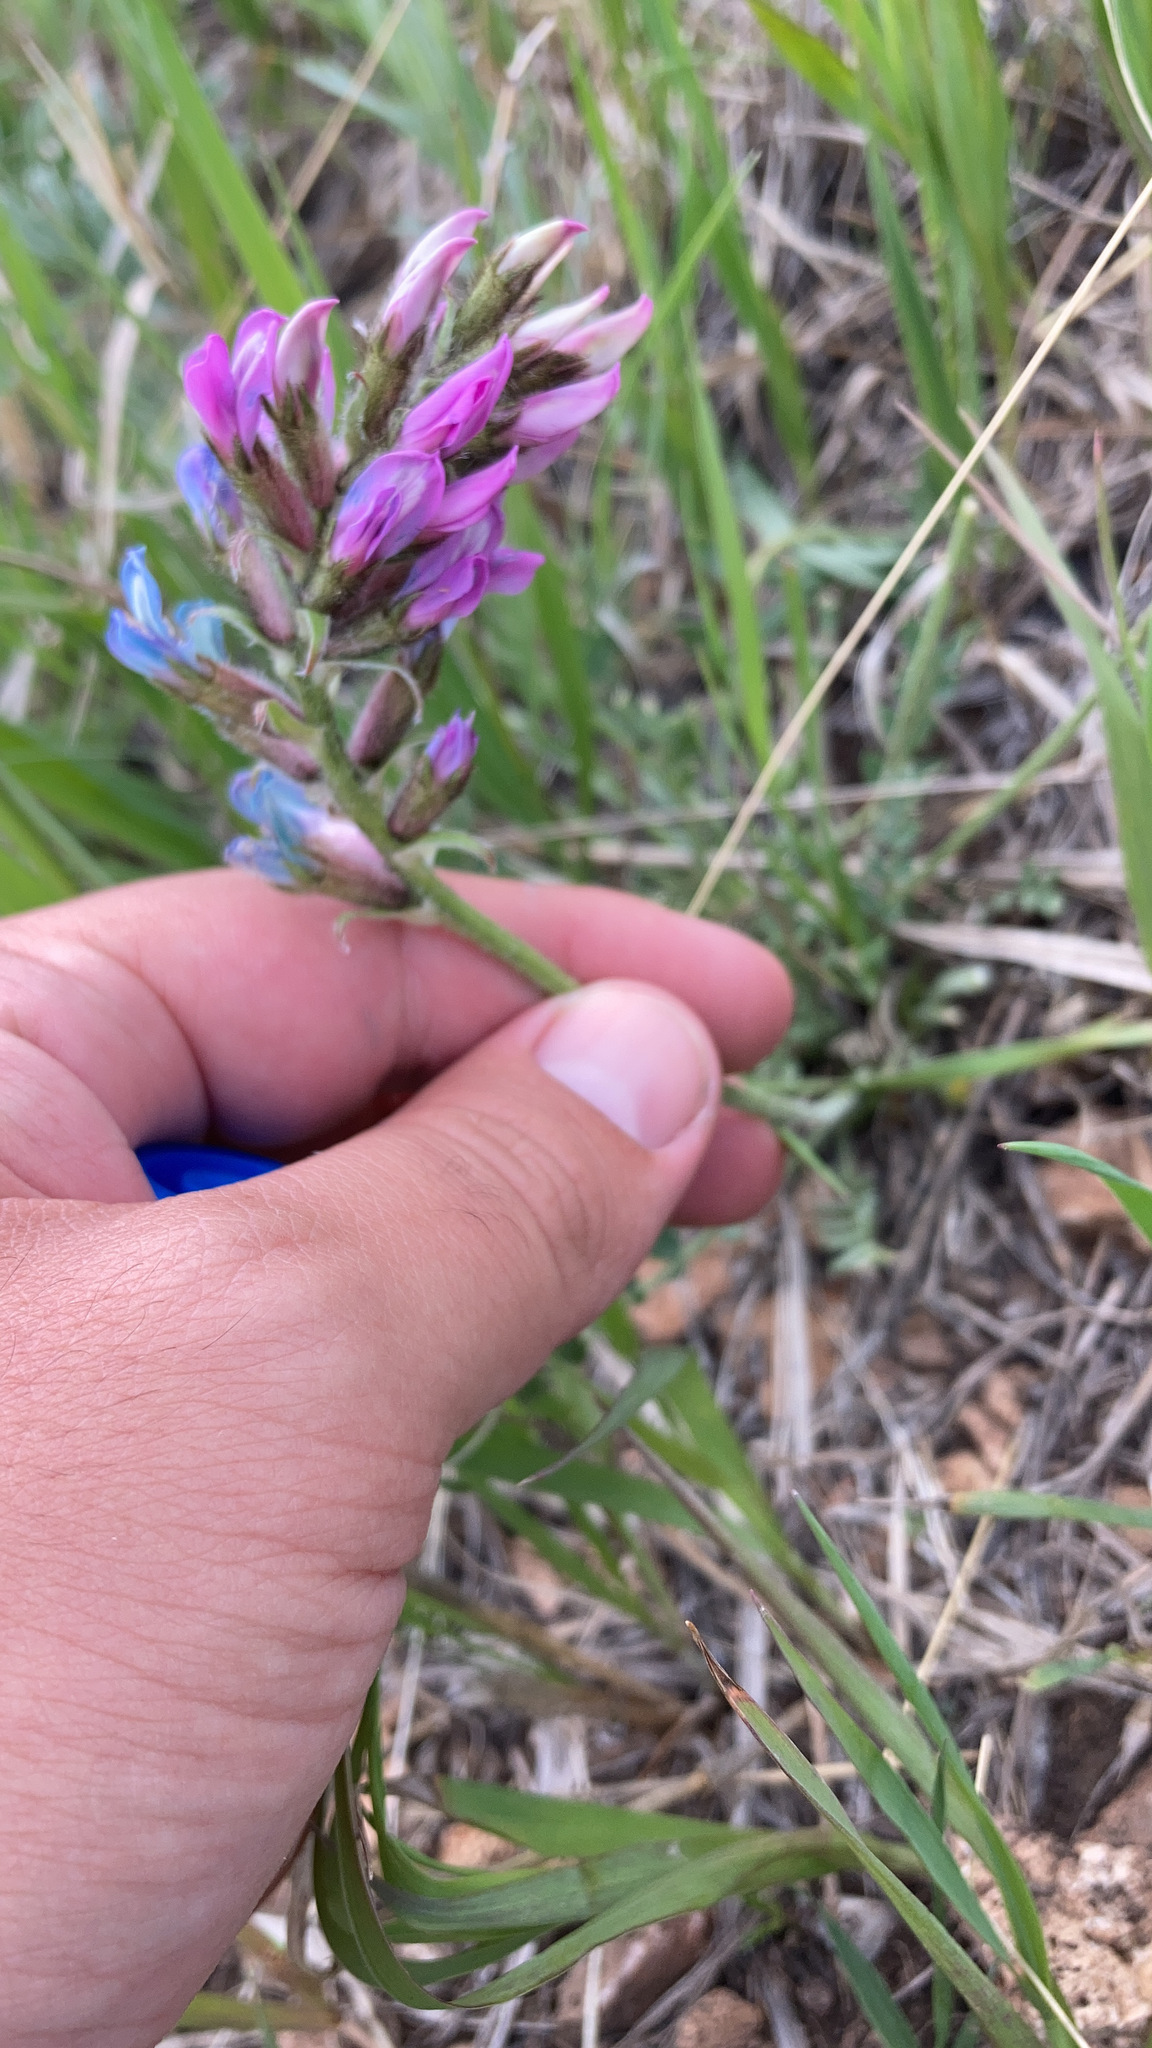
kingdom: Plantae
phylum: Tracheophyta
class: Magnoliopsida
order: Fabales
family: Fabaceae
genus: Oxytropis
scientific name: Oxytropis lambertii
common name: Purple locoweed
